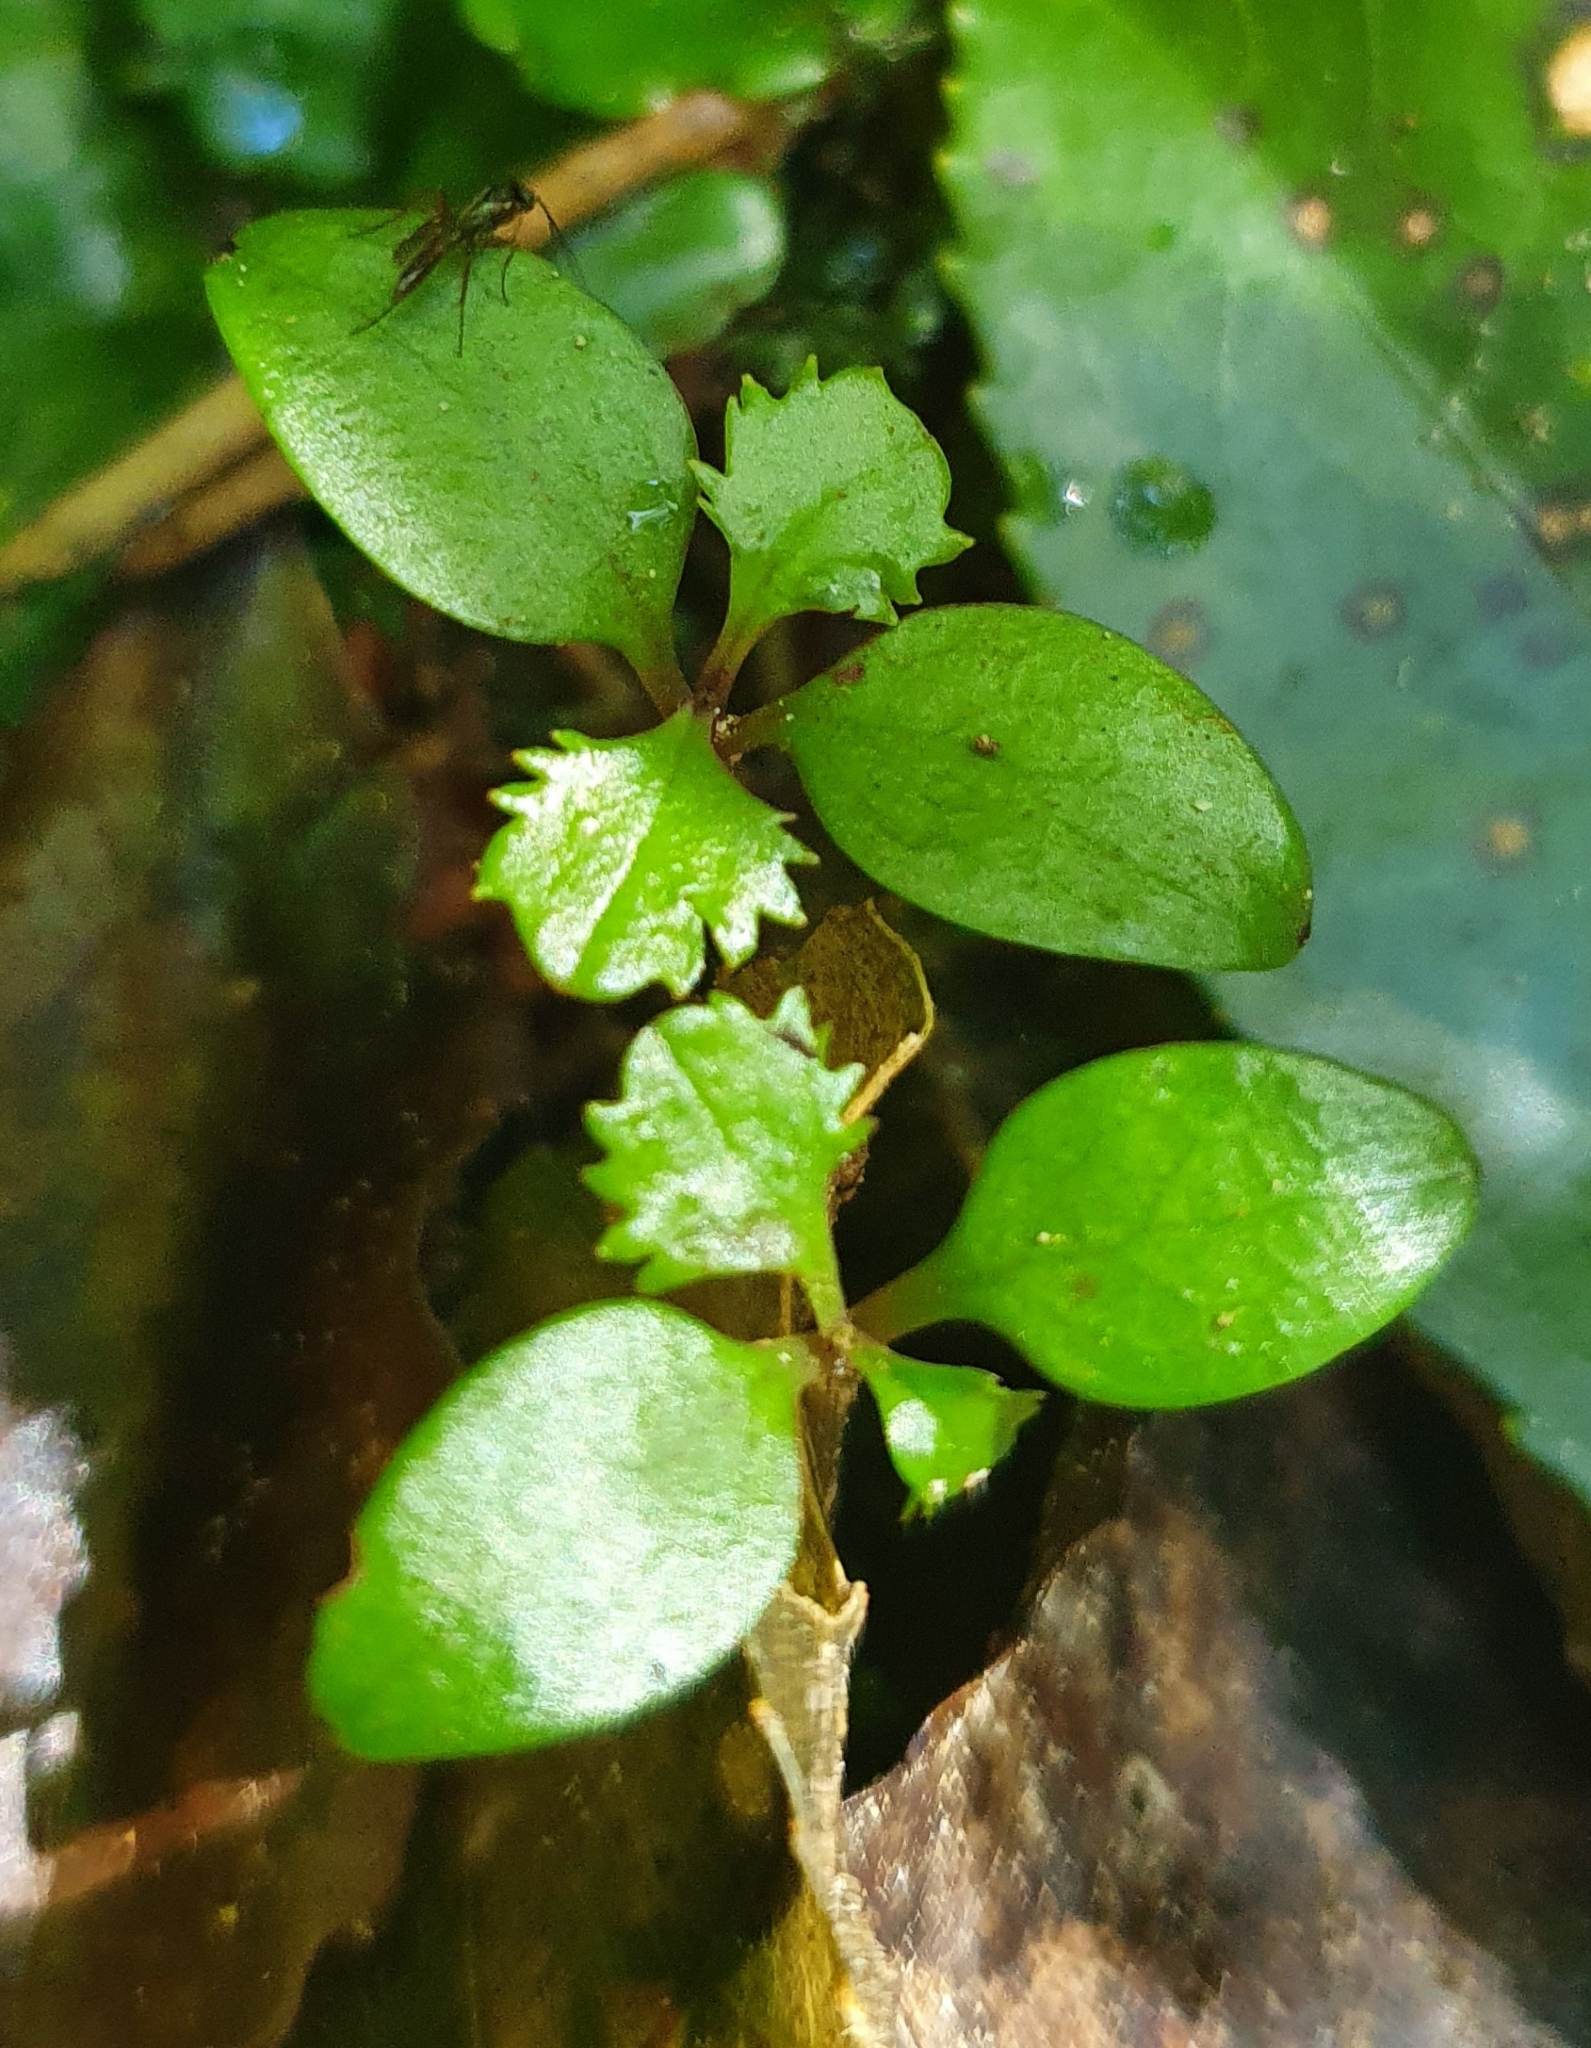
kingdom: Plantae
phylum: Tracheophyta
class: Magnoliopsida
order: Laurales
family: Atherospermataceae
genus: Laurelia
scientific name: Laurelia novae-zelandiae
